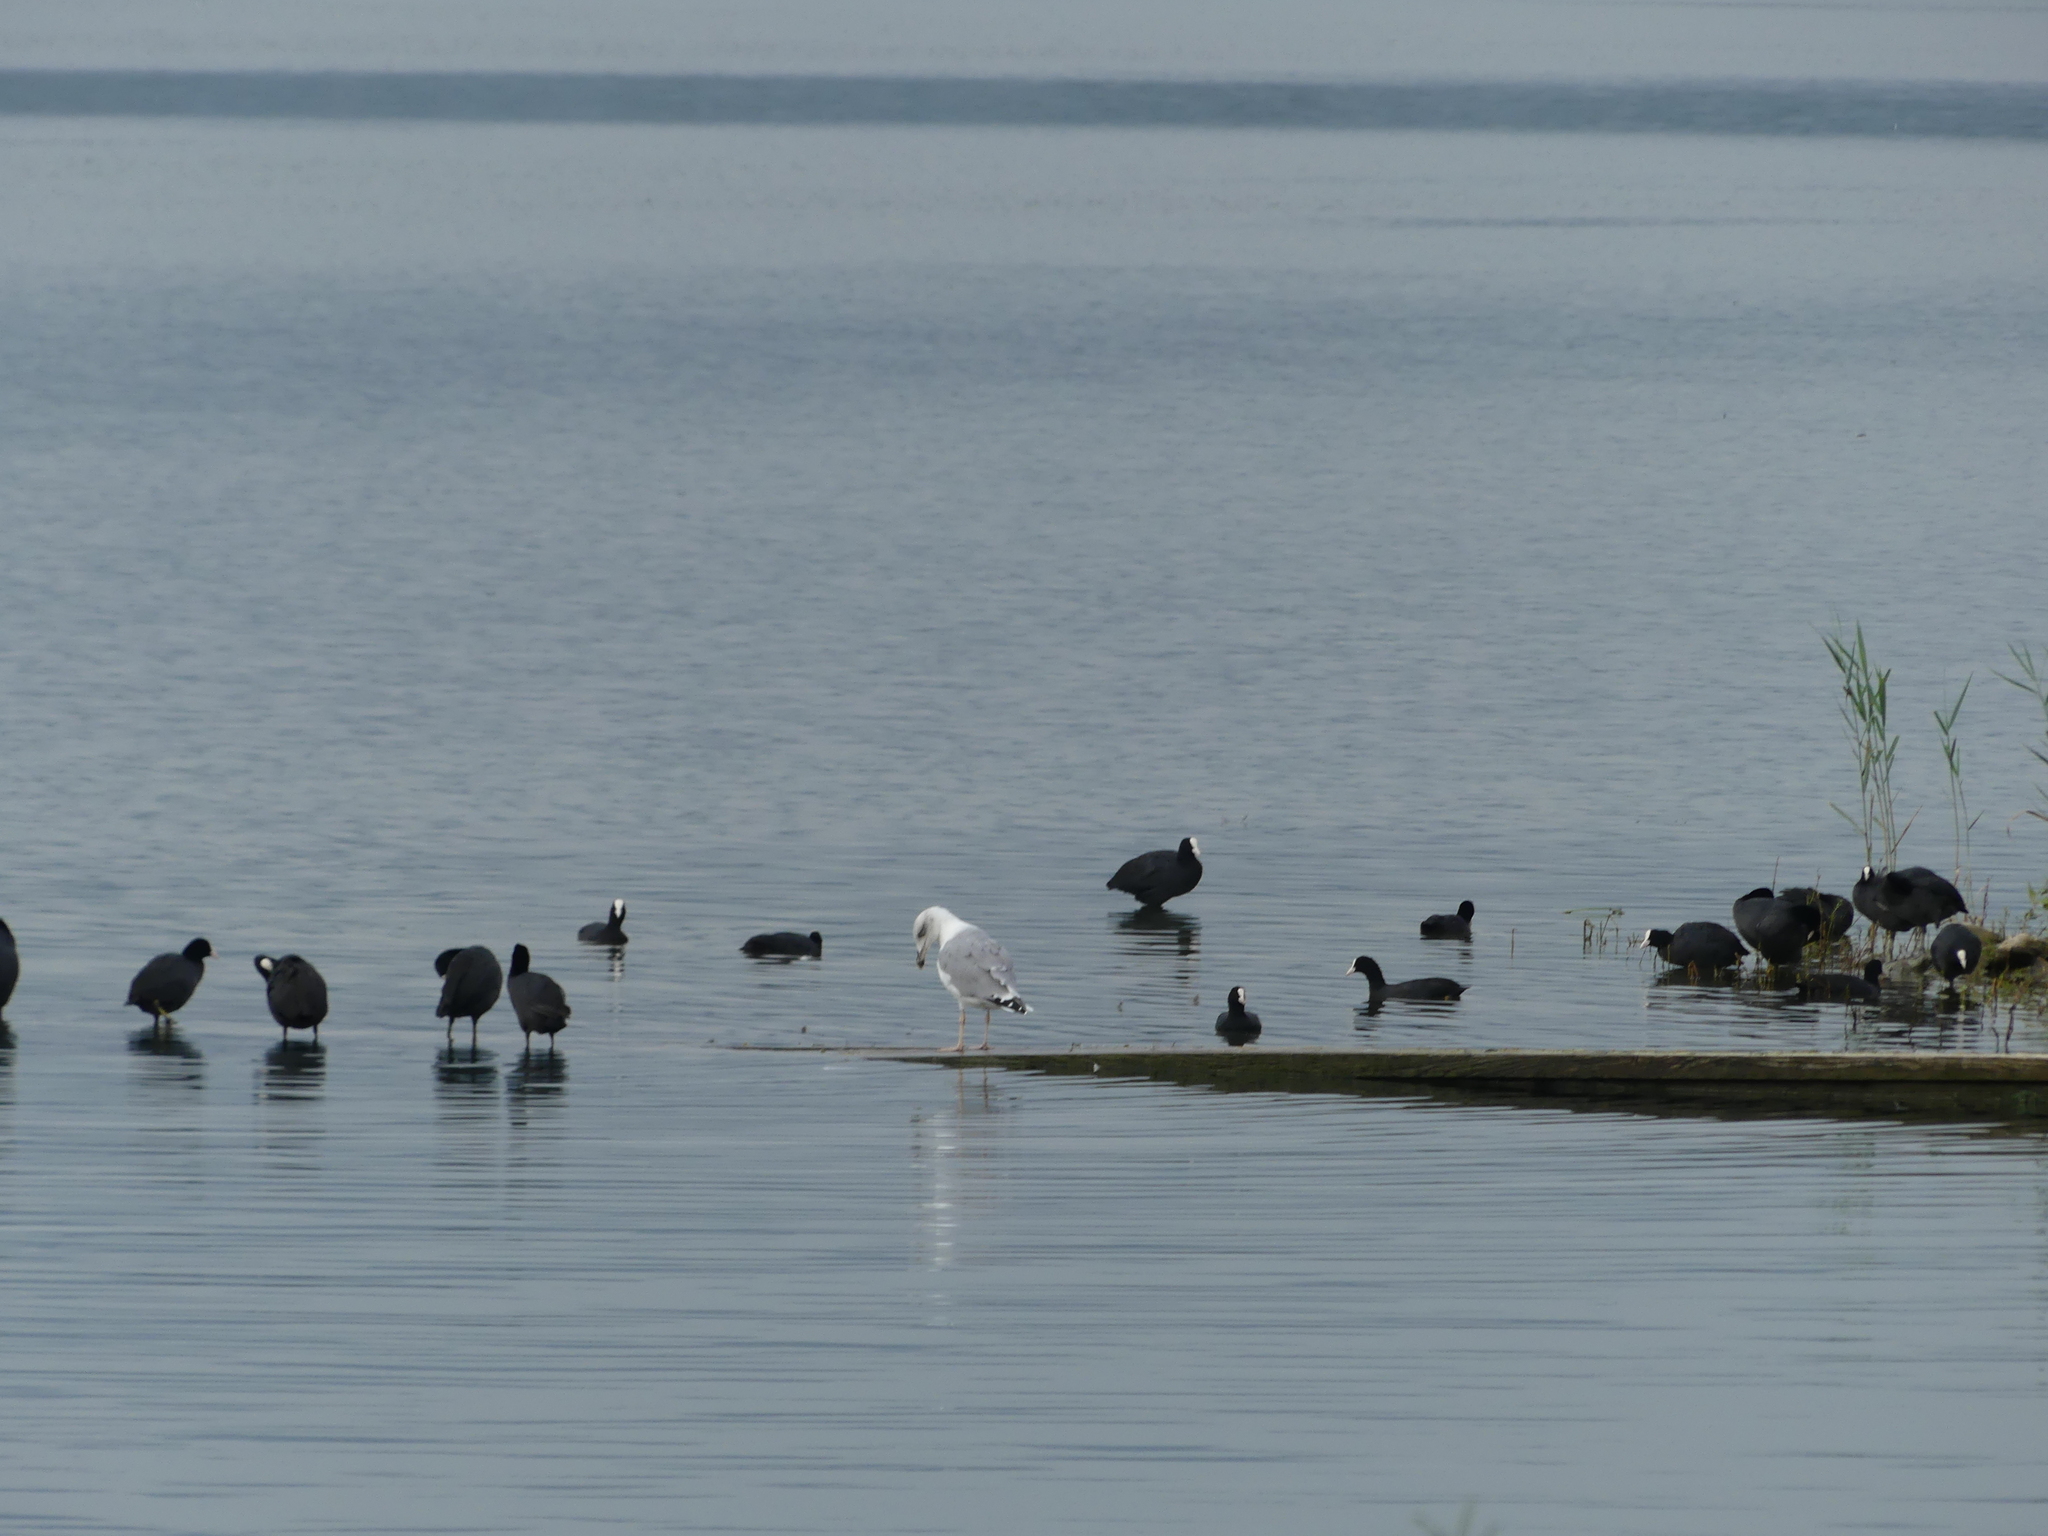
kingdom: Animalia
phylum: Chordata
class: Aves
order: Gruiformes
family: Rallidae
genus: Fulica
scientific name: Fulica atra
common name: Eurasian coot
